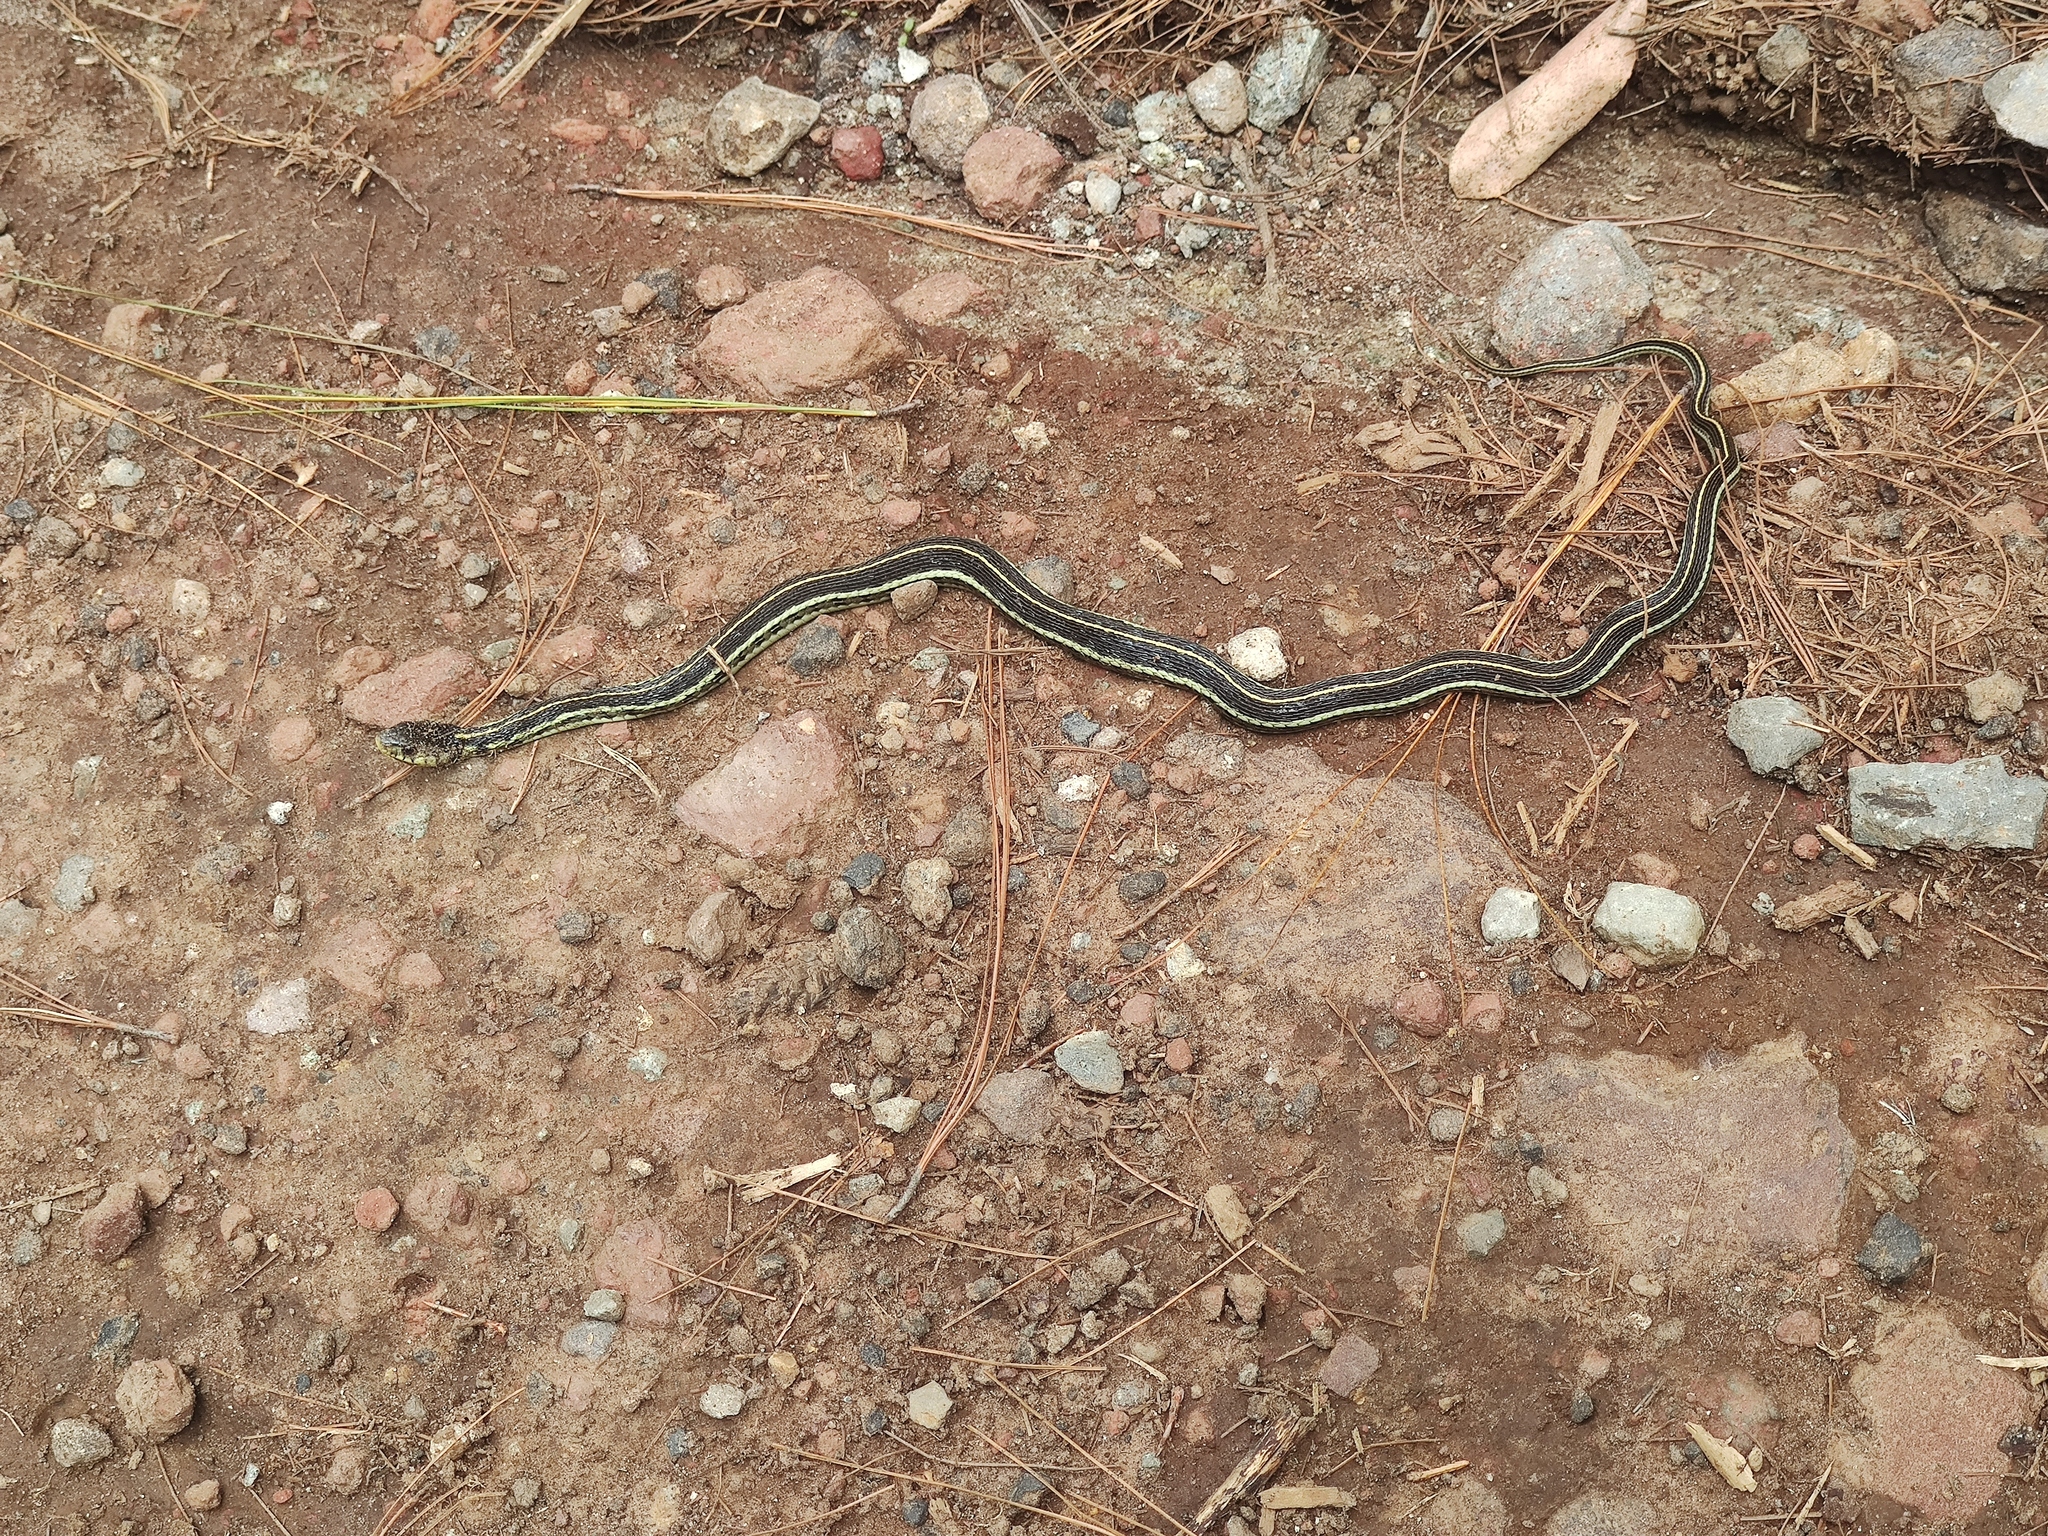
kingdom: Animalia
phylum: Chordata
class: Squamata
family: Colubridae
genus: Thamnophis
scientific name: Thamnophis pulchrilatus
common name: Yellow-throated gartersnake
